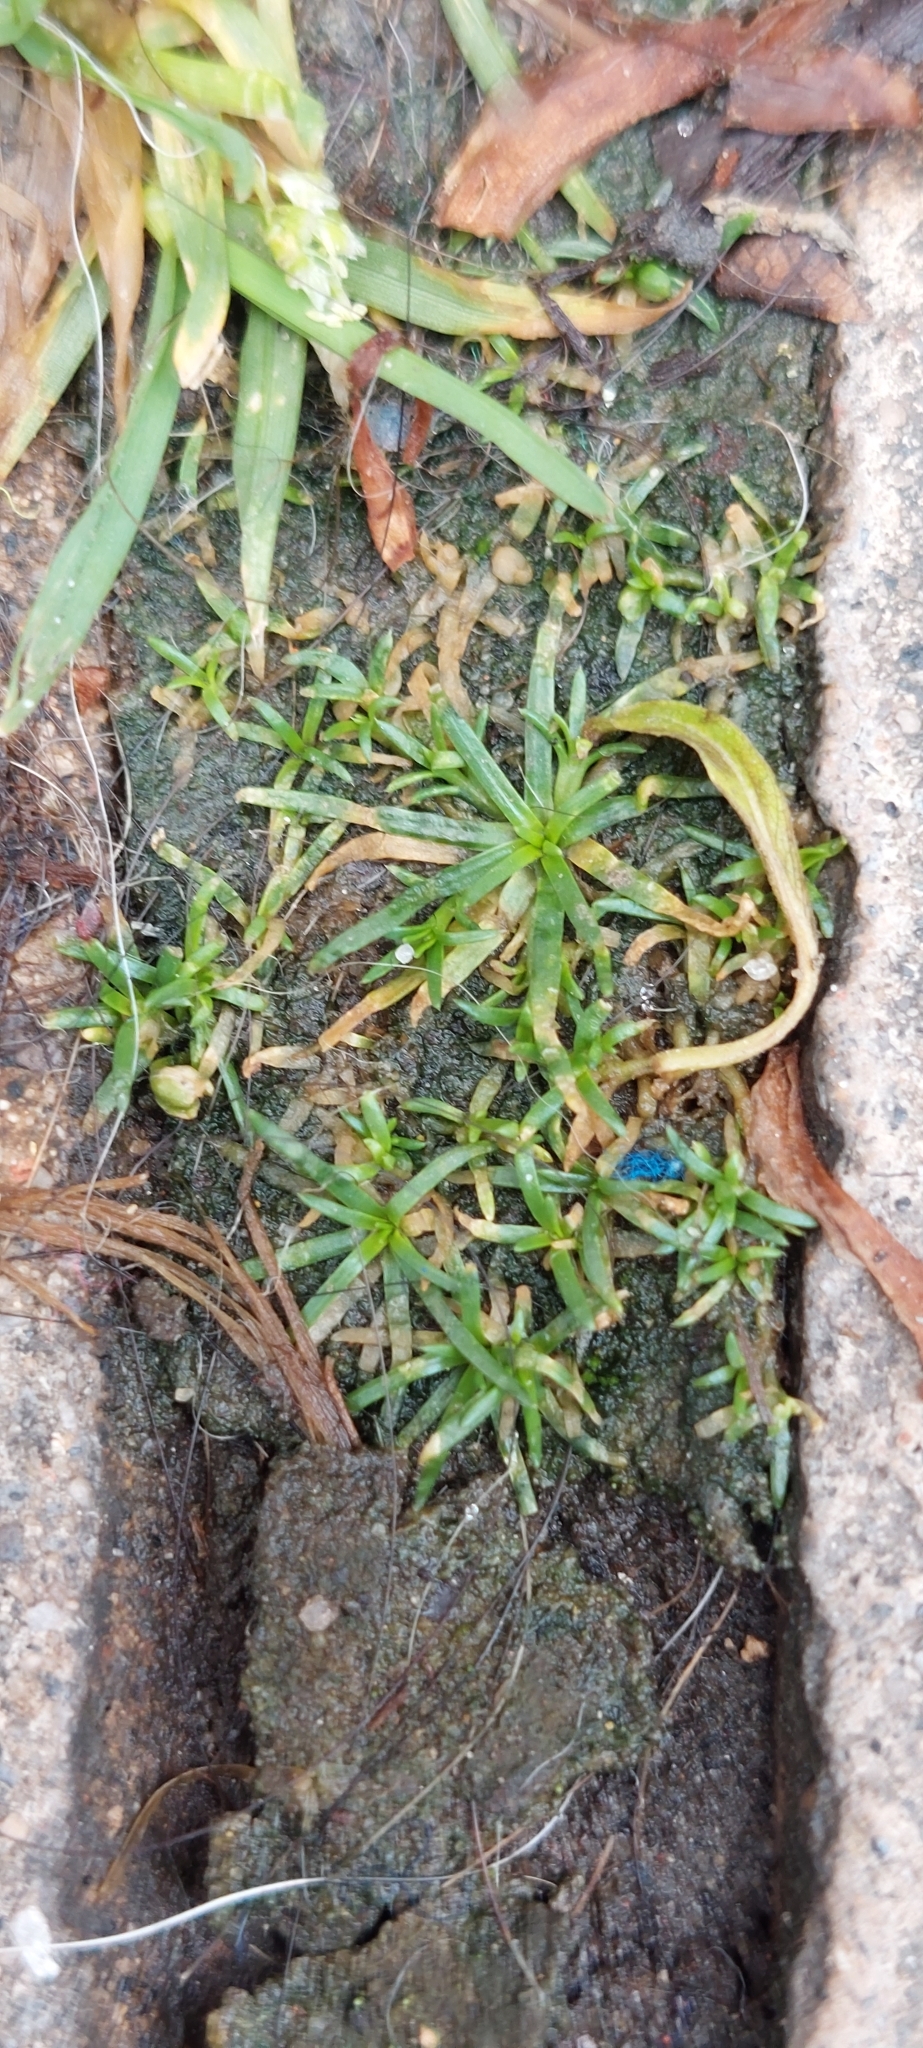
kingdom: Plantae
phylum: Tracheophyta
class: Magnoliopsida
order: Caryophyllales
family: Caryophyllaceae
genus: Sagina
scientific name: Sagina procumbens
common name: Procumbent pearlwort
